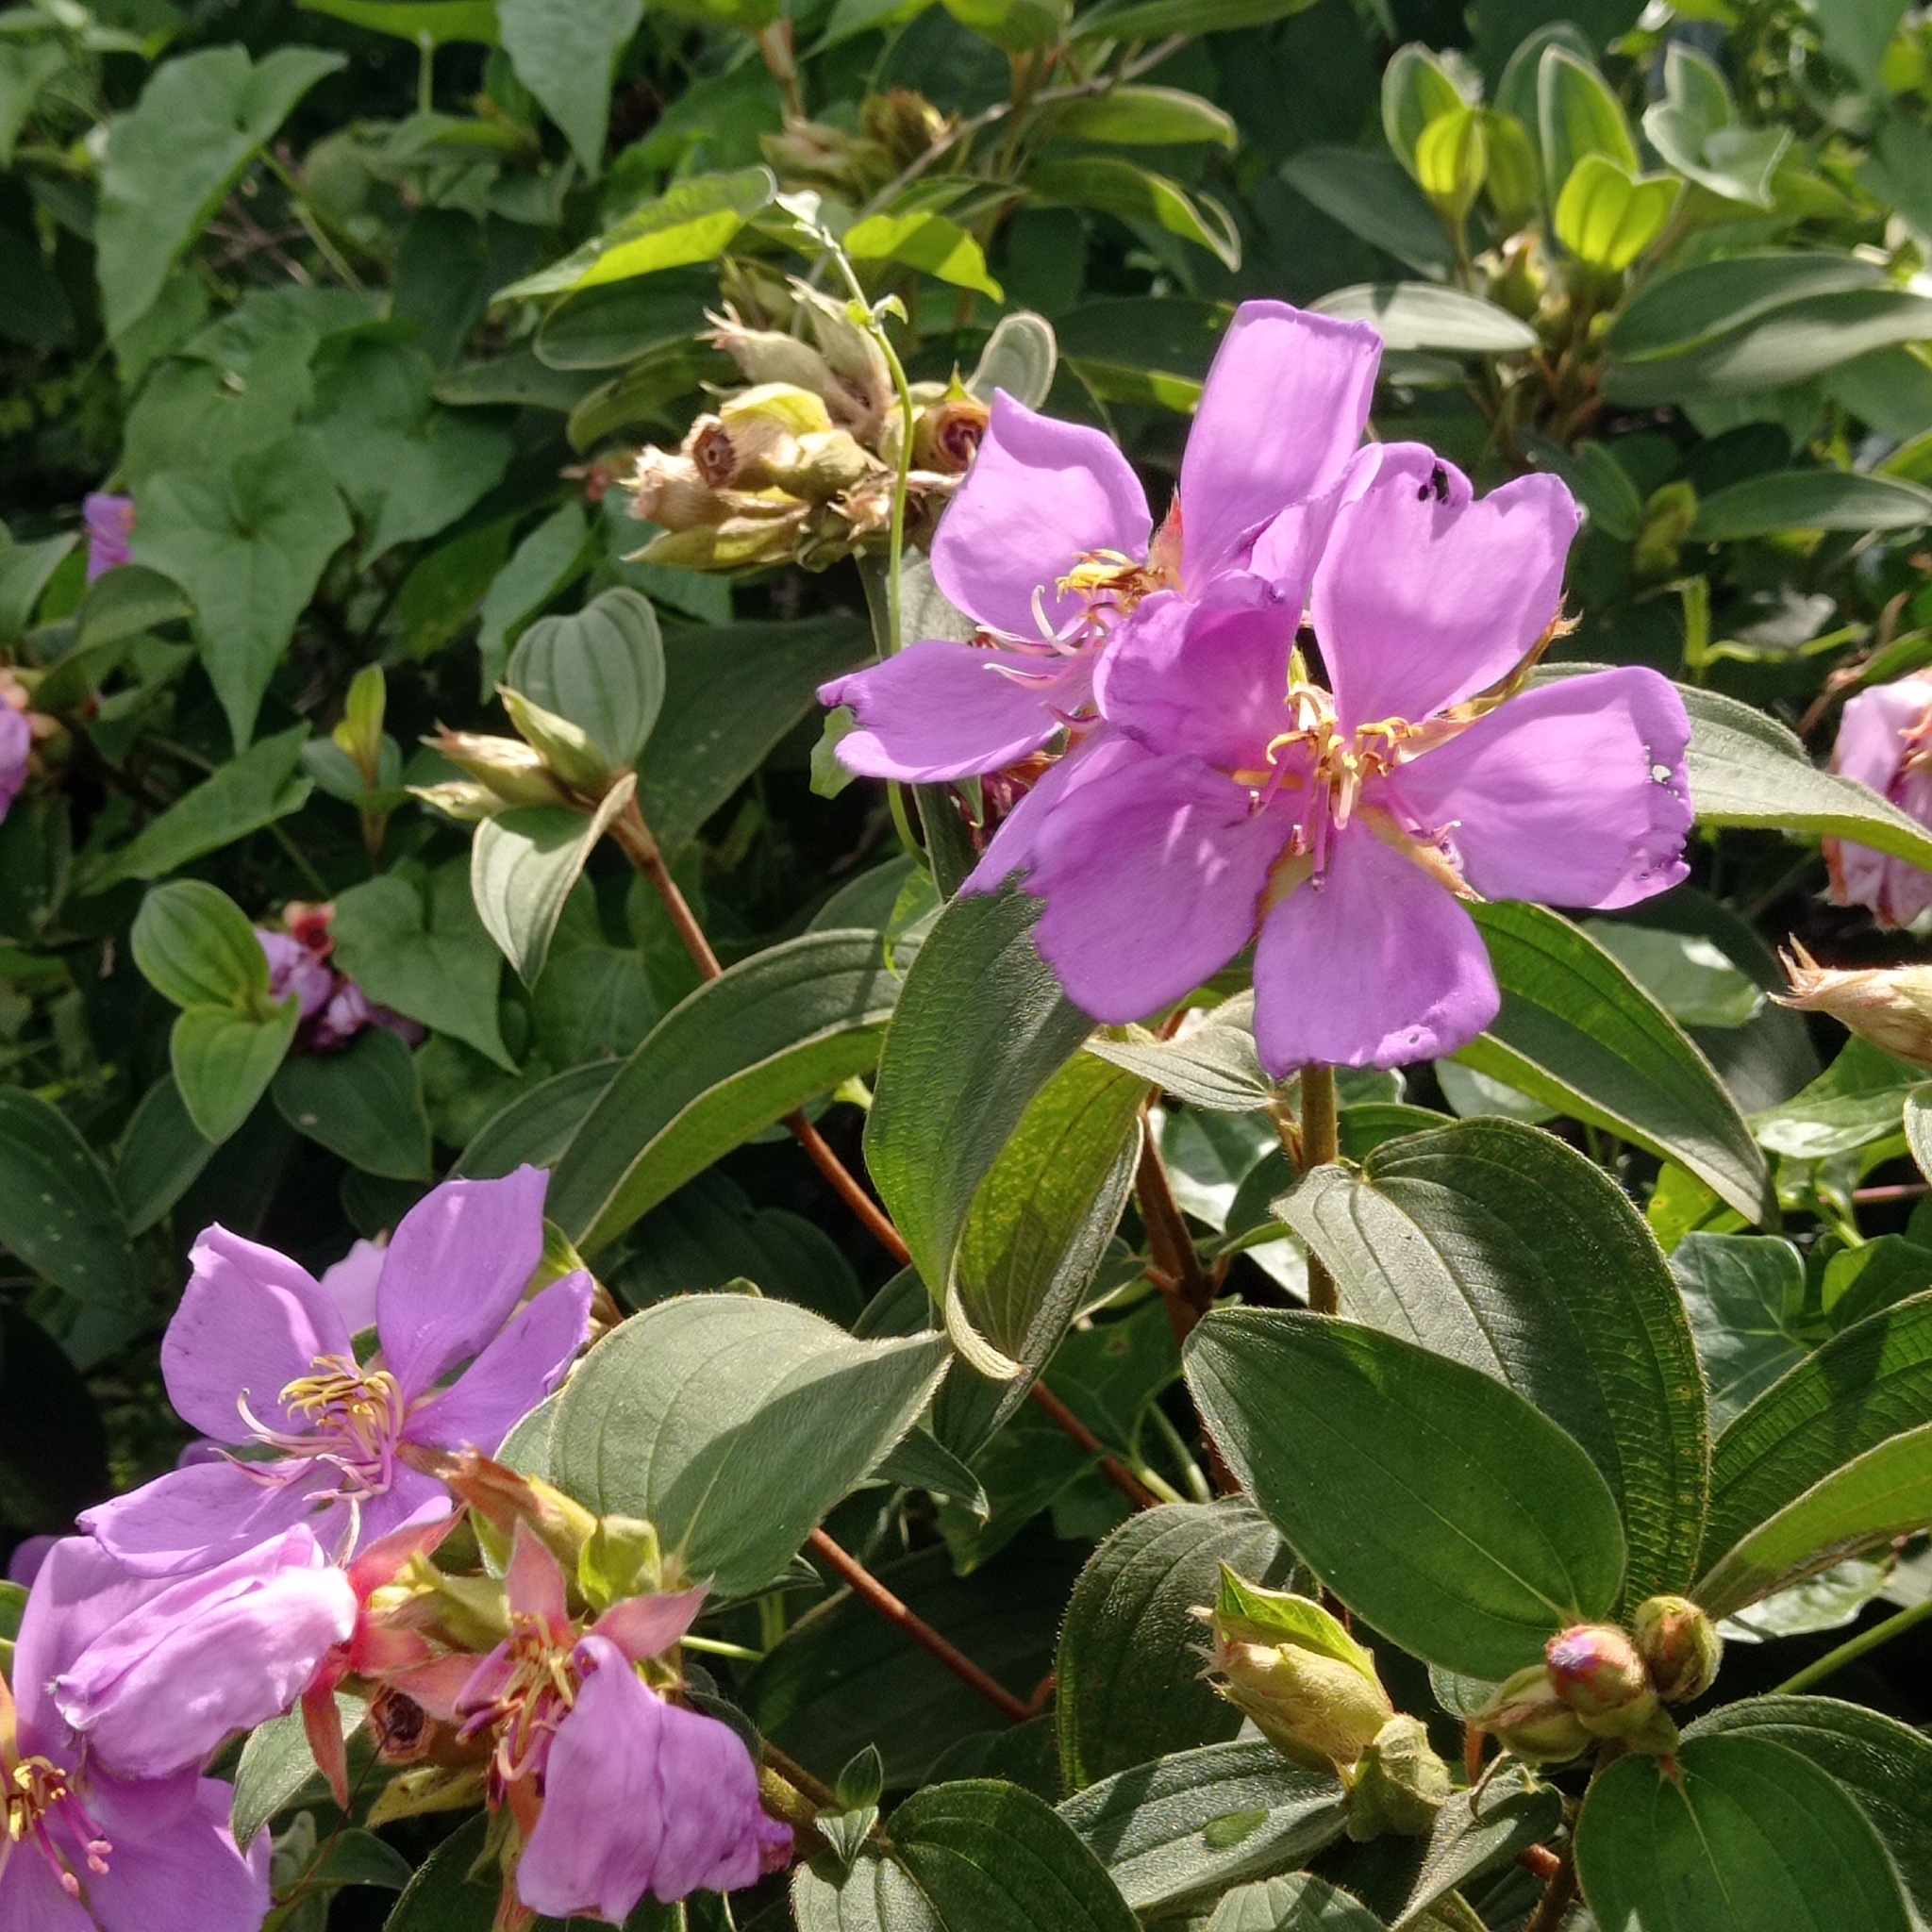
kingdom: Plantae
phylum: Tracheophyta
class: Magnoliopsida
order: Myrtales
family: Melastomataceae
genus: Melastoma
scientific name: Melastoma malabathricum
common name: Indian-rhododendron
